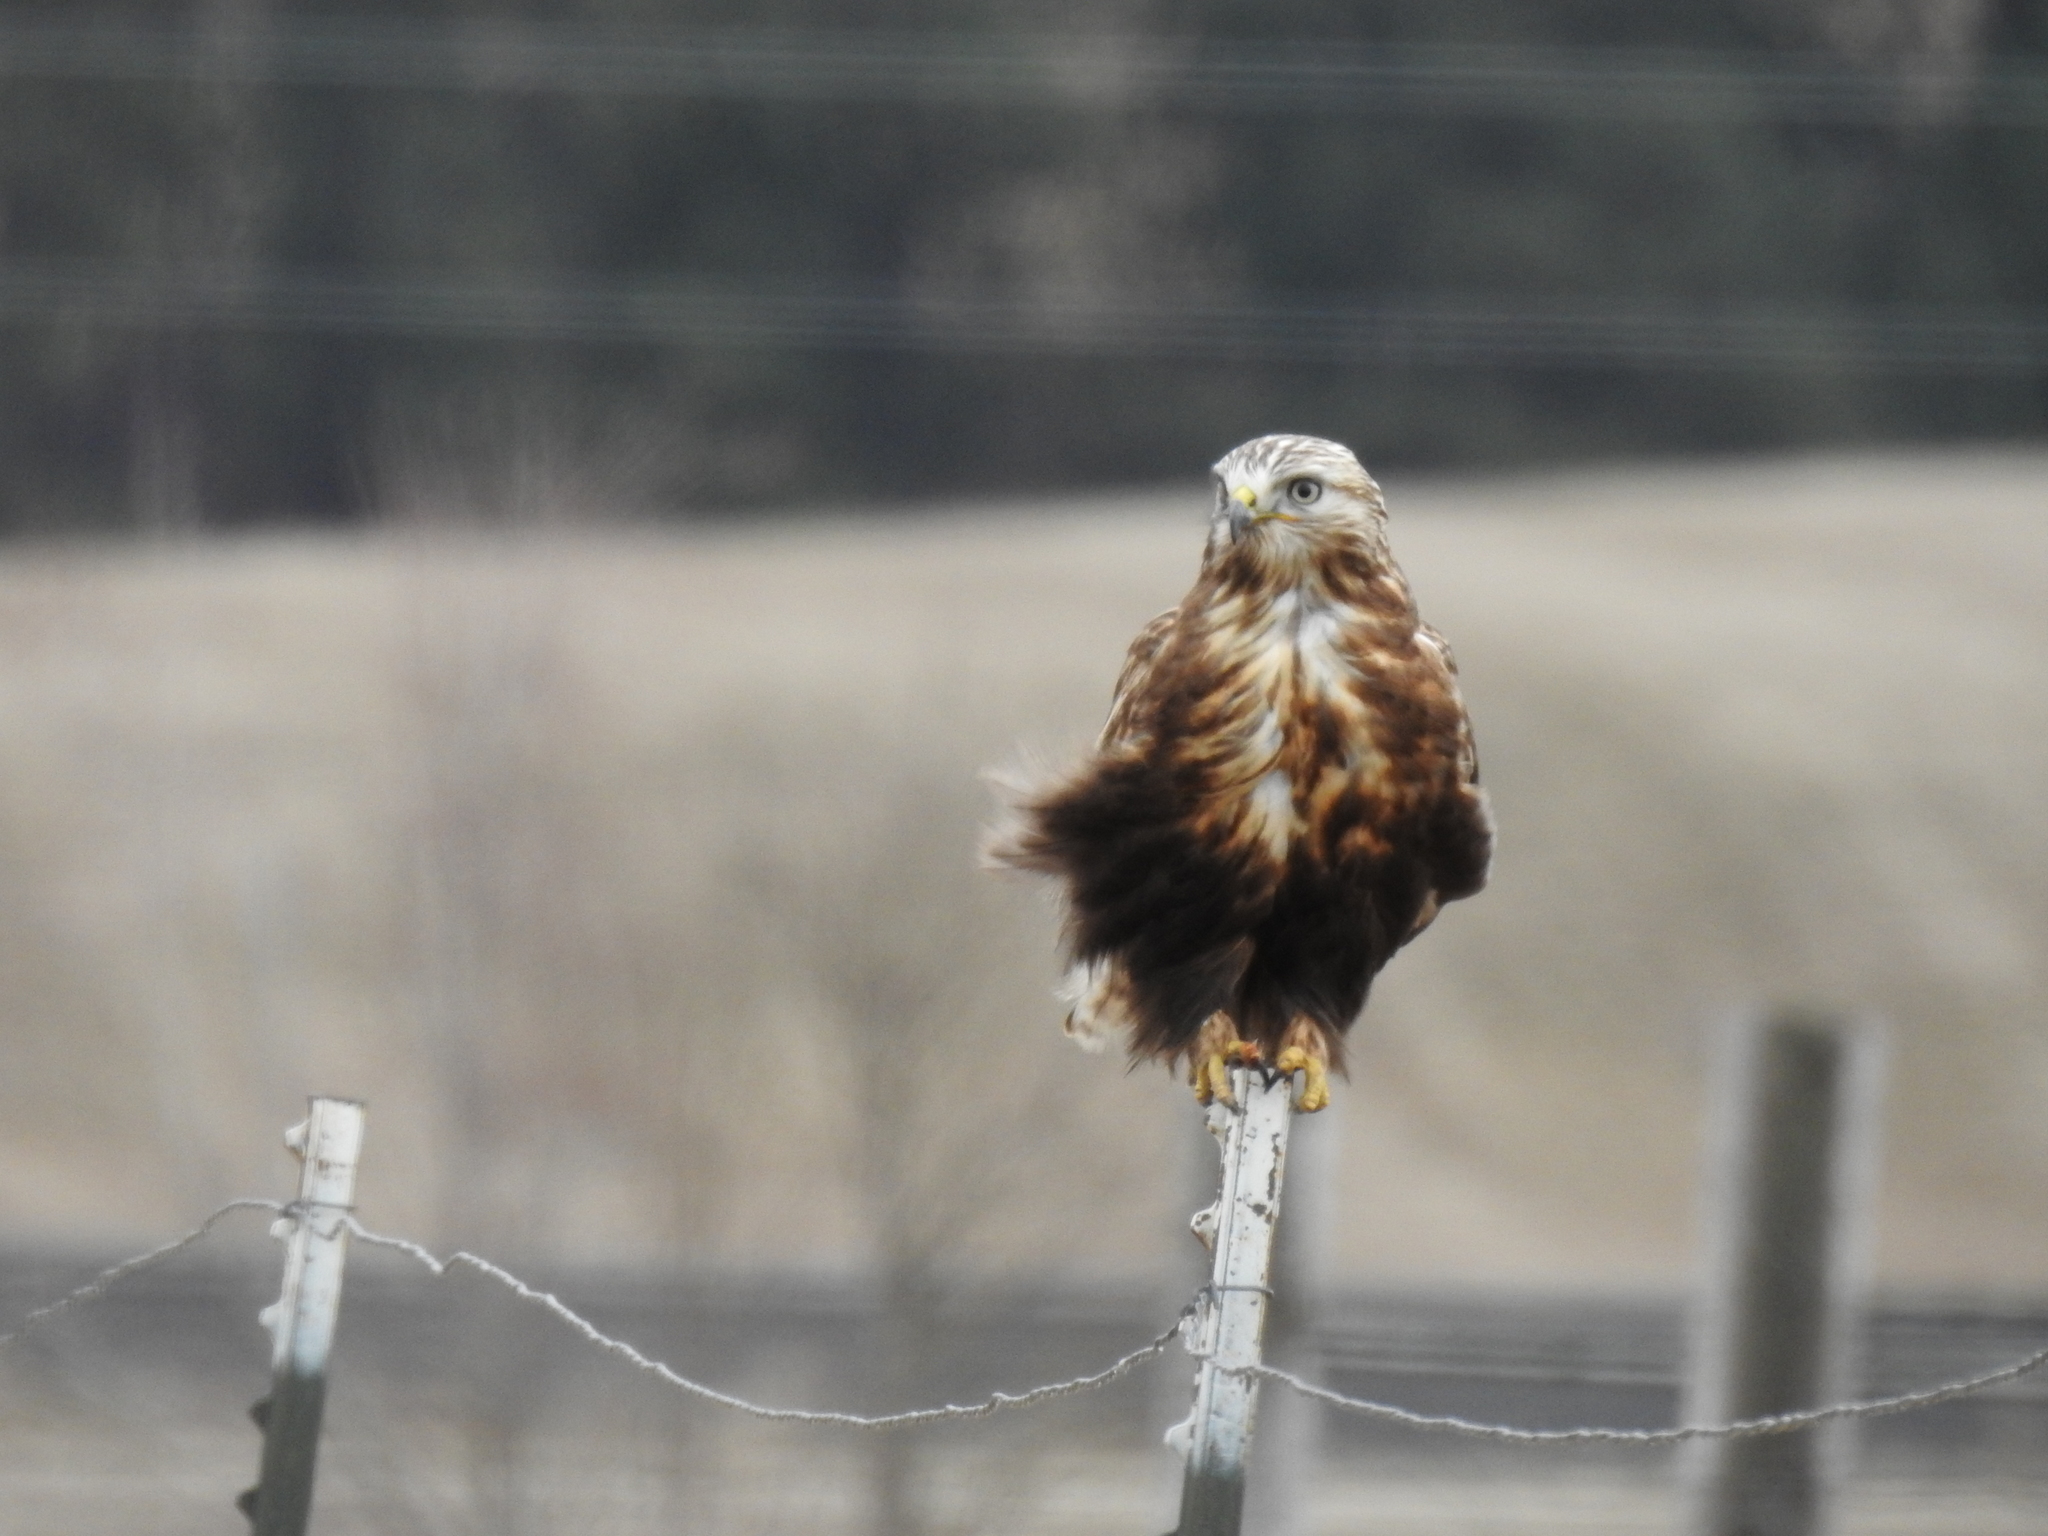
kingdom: Animalia
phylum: Chordata
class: Aves
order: Accipitriformes
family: Accipitridae
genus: Buteo
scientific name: Buteo lagopus
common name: Rough-legged buzzard
